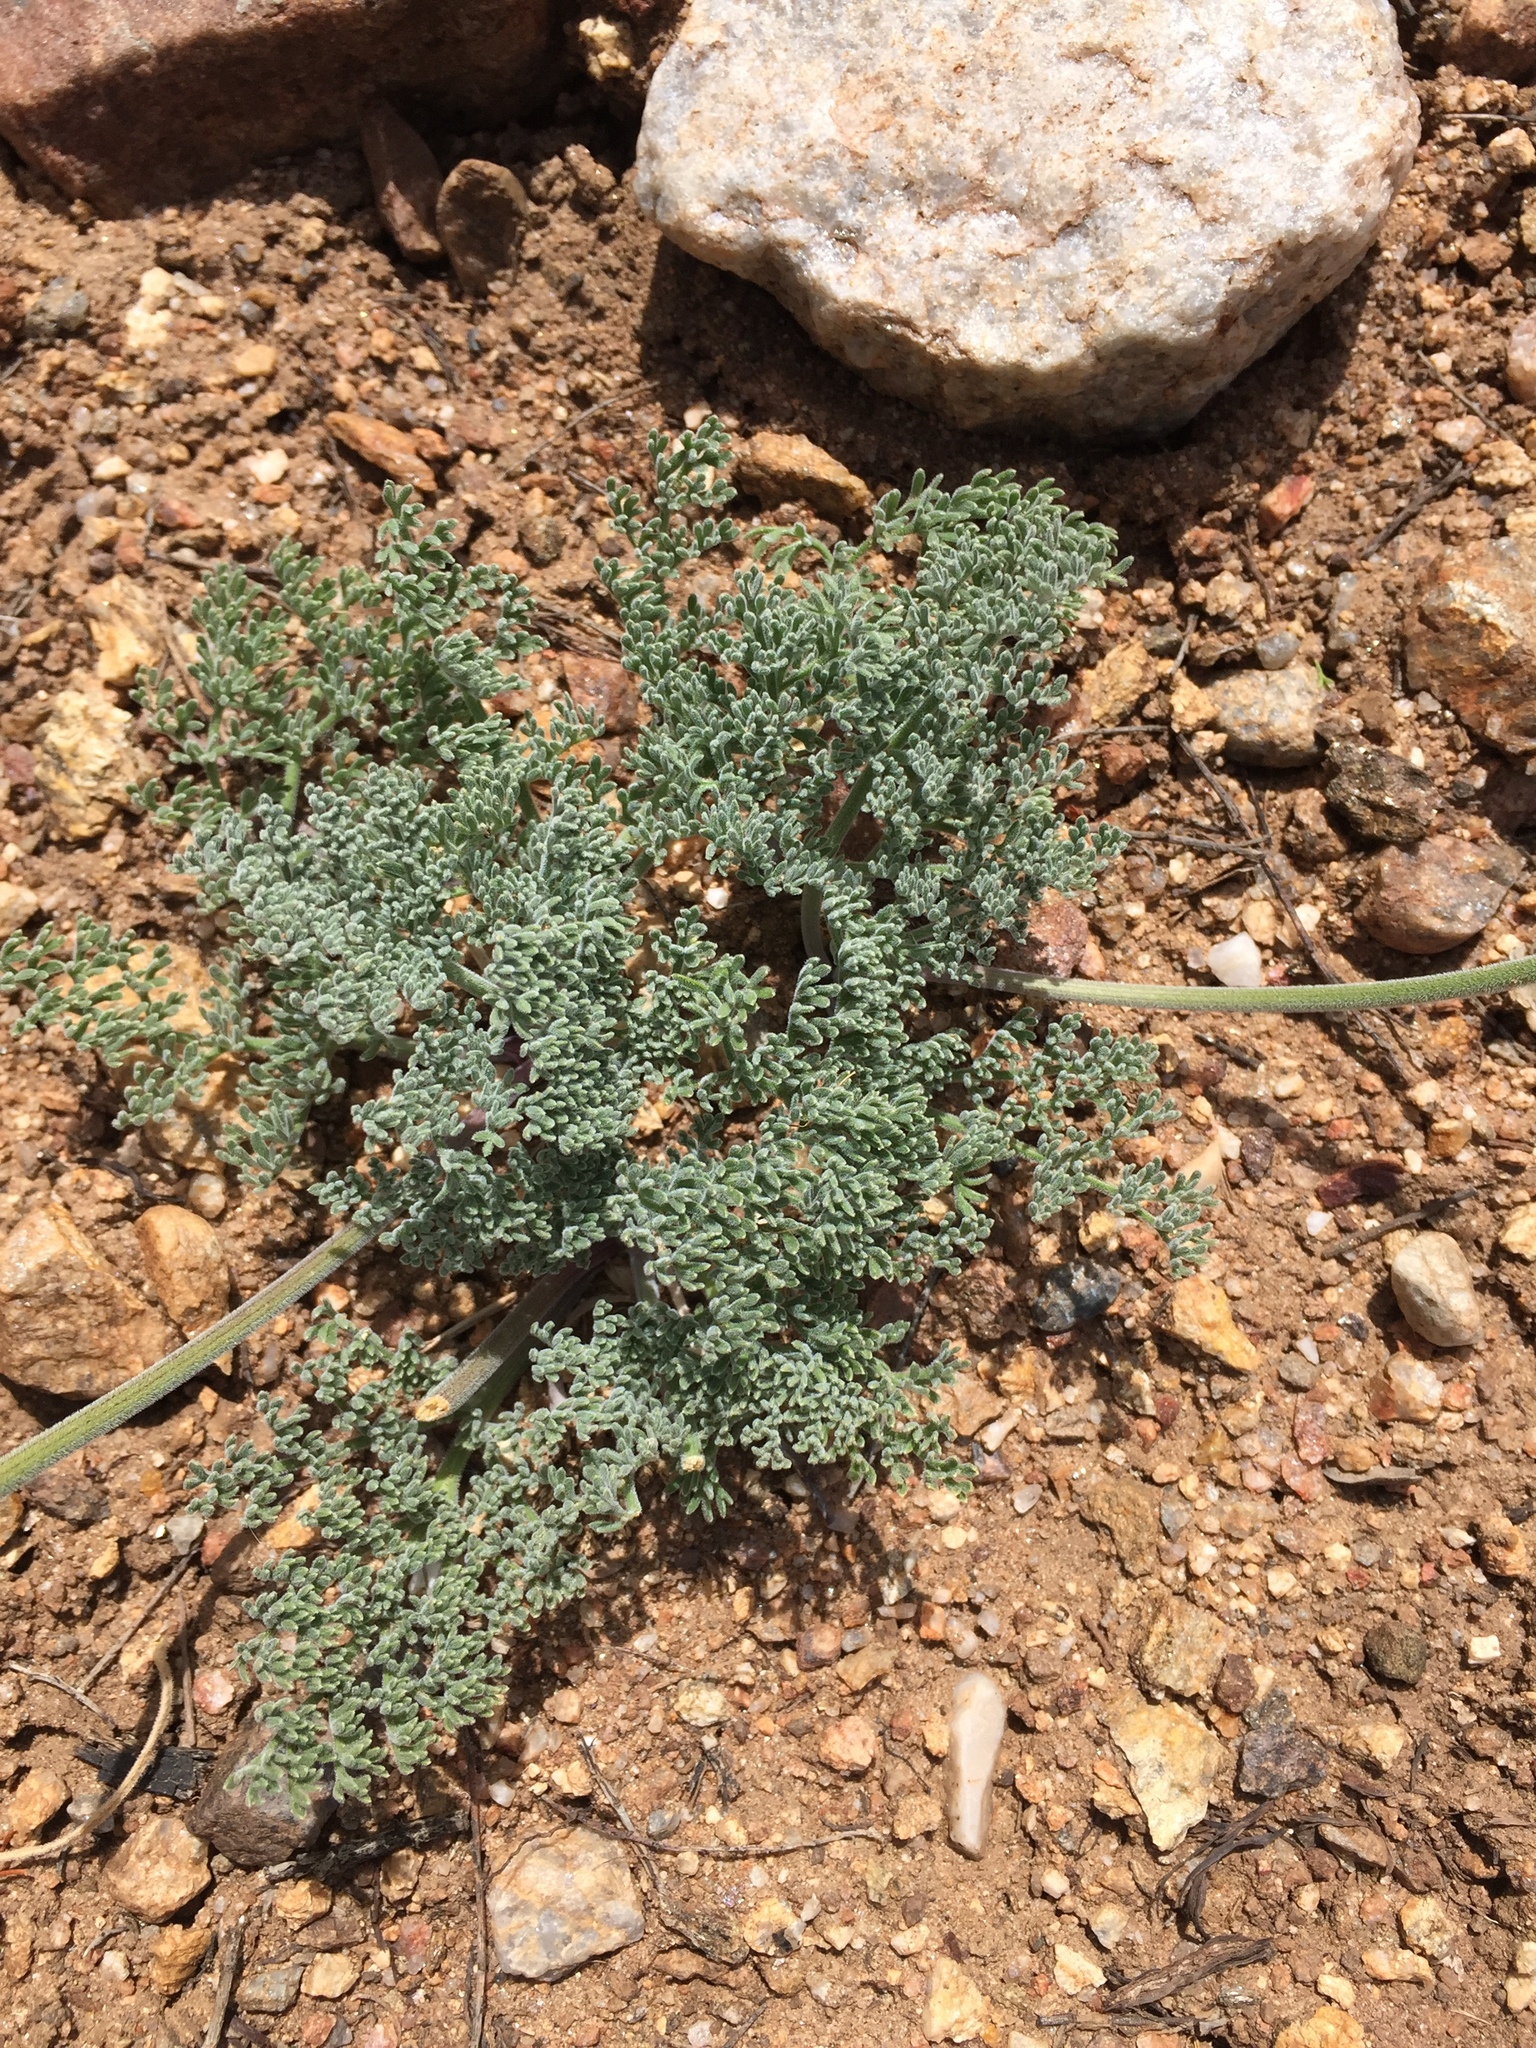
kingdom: Plantae
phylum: Tracheophyta
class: Magnoliopsida
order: Apiales
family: Apiaceae
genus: Lomatium
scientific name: Lomatium mohavense
